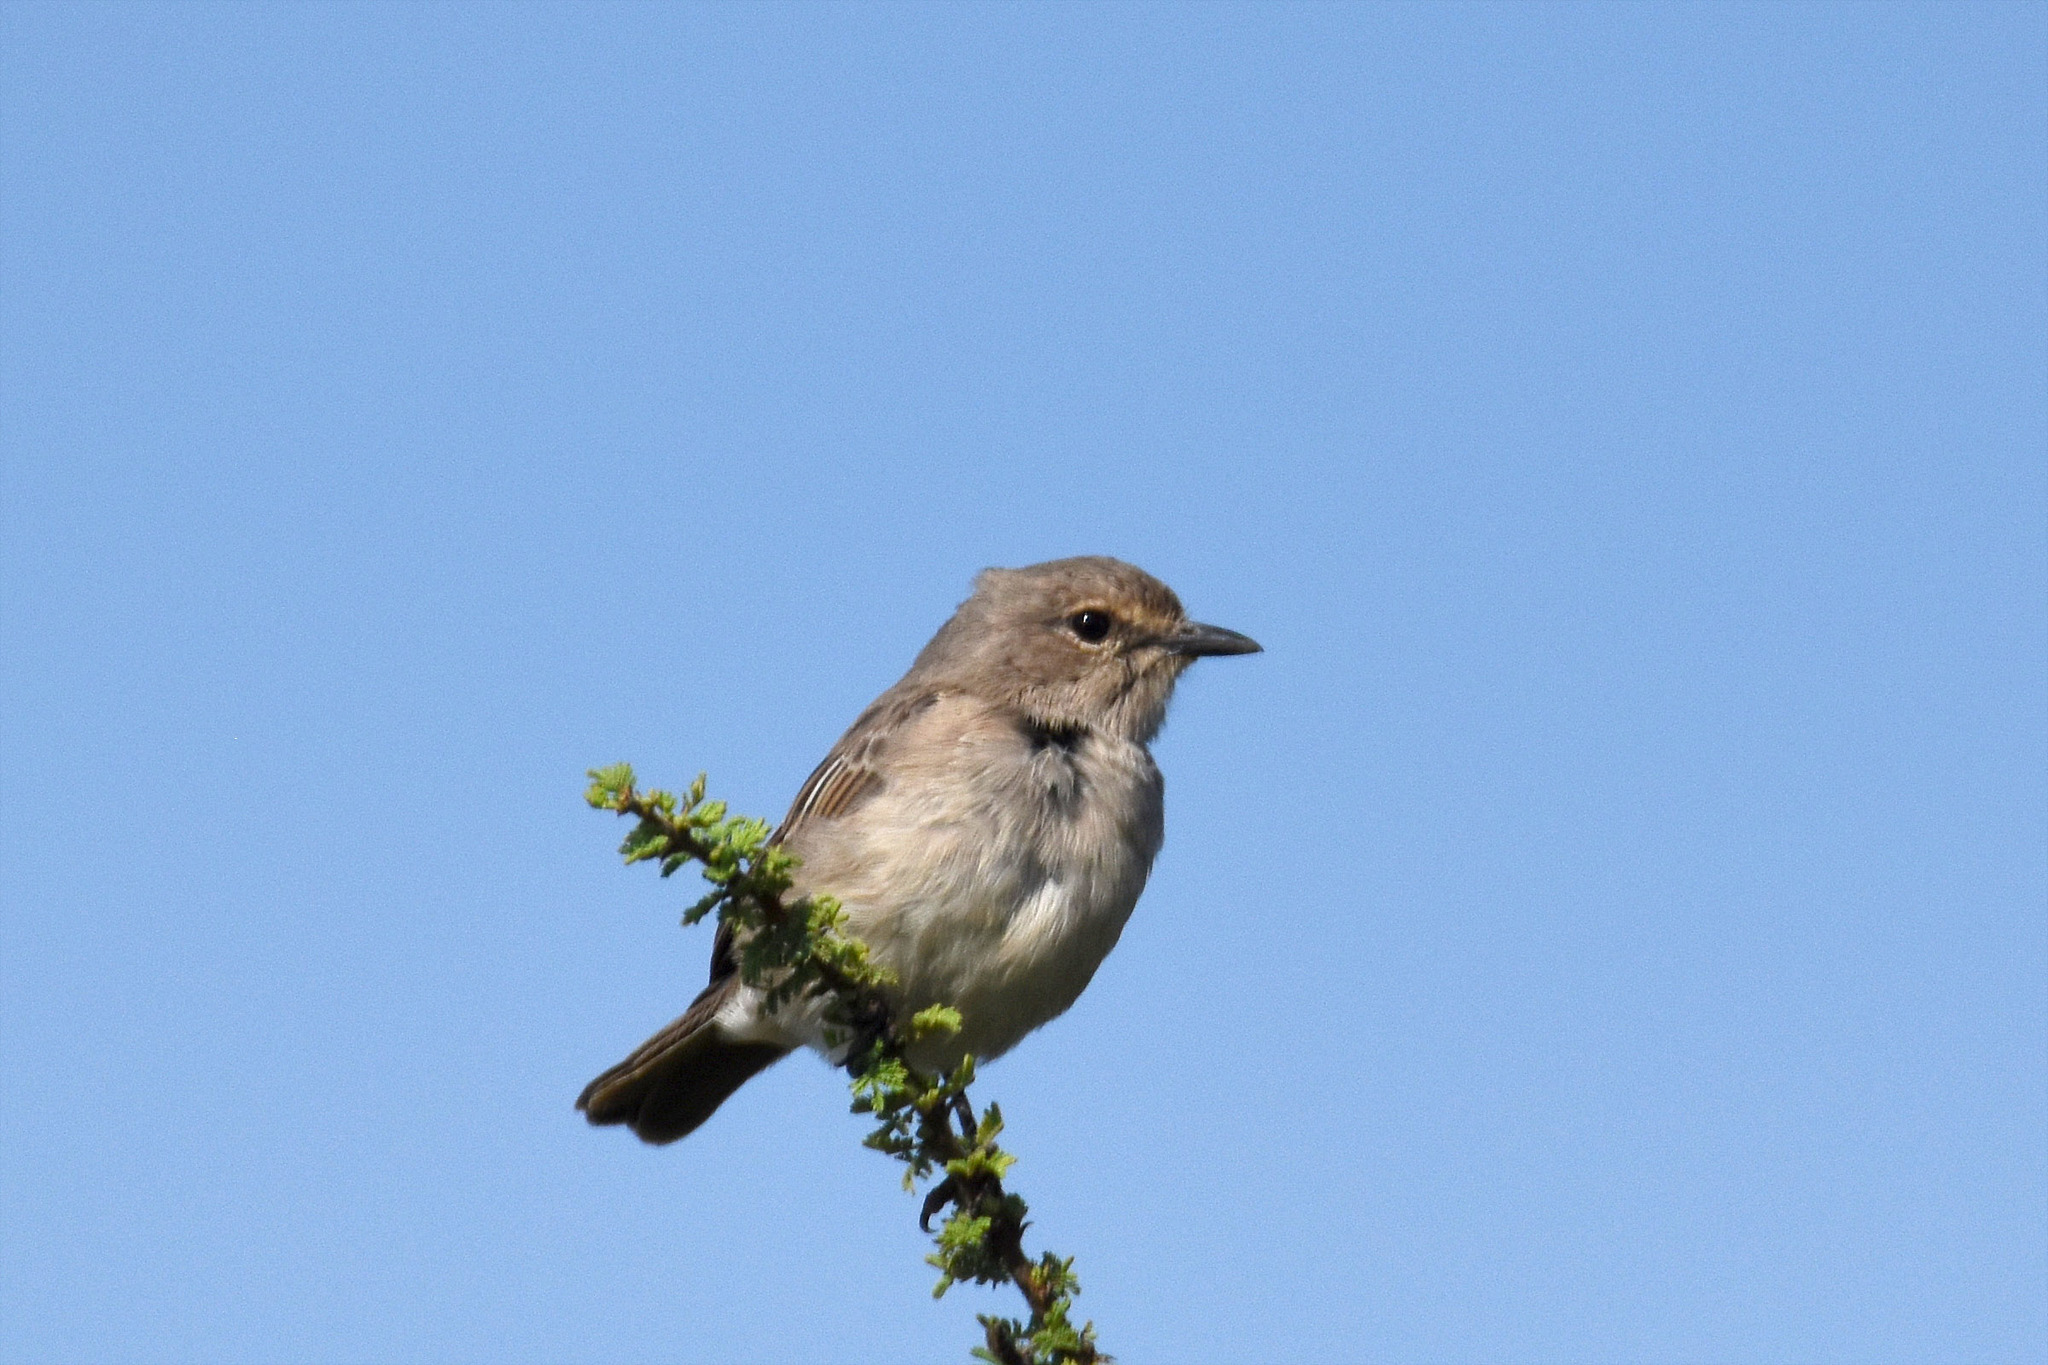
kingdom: Animalia
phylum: Chordata
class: Aves
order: Passeriformes
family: Muscicapidae
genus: Bradornis
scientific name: Bradornis microrhynchus
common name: African grey flycatcher
